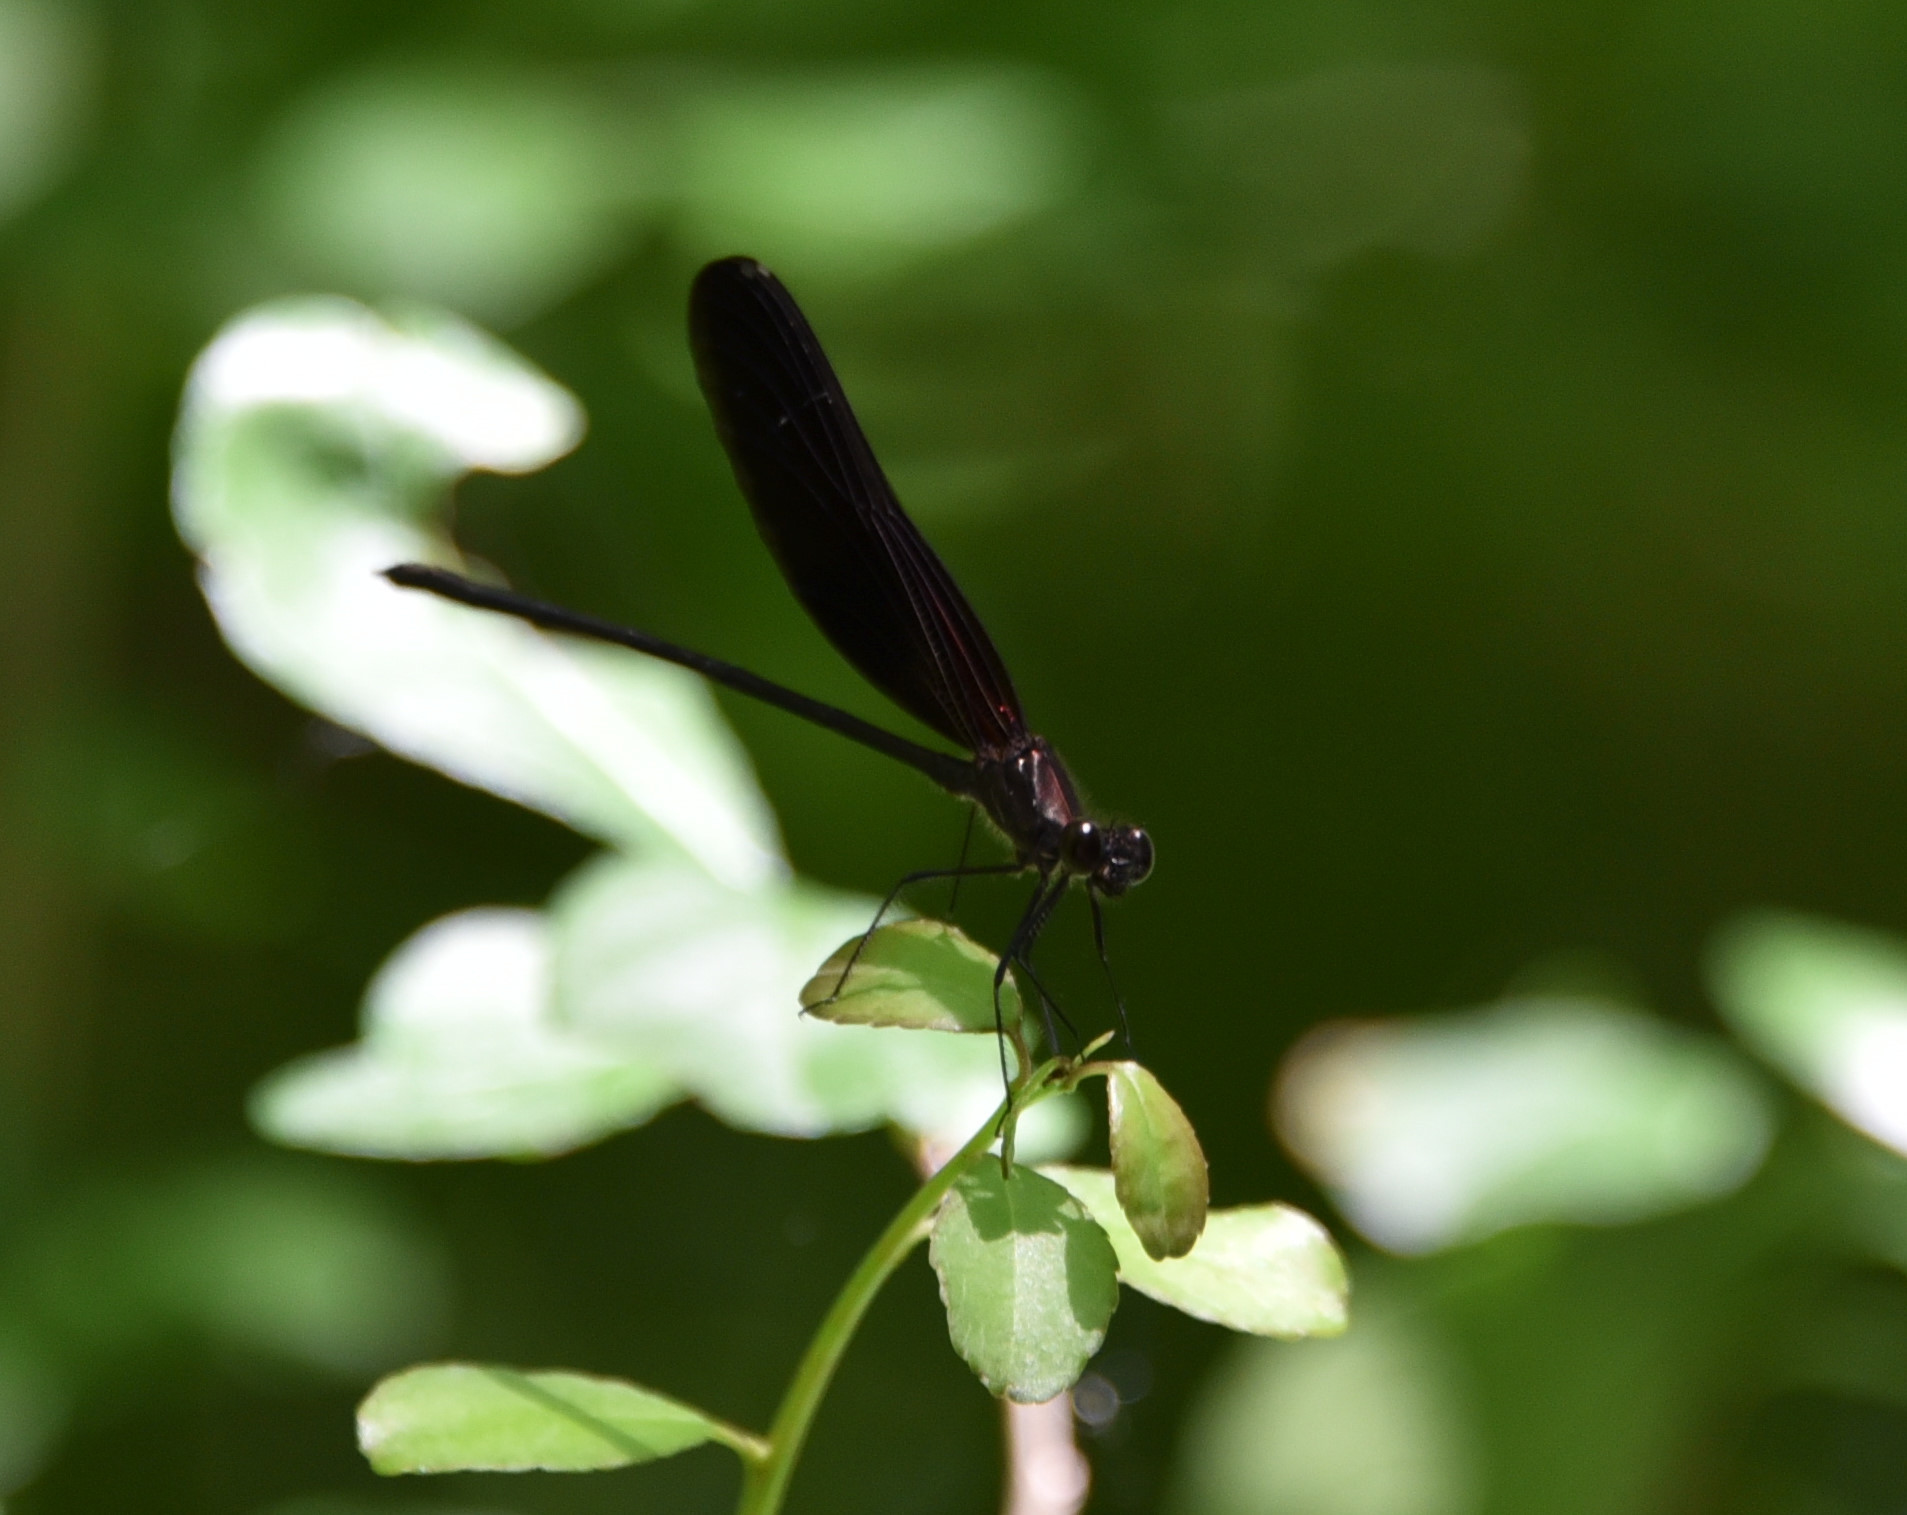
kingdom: Animalia
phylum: Arthropoda
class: Insecta
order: Odonata
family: Calopterygidae
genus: Hetaerina
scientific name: Hetaerina titia
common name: Smoky rubyspot
